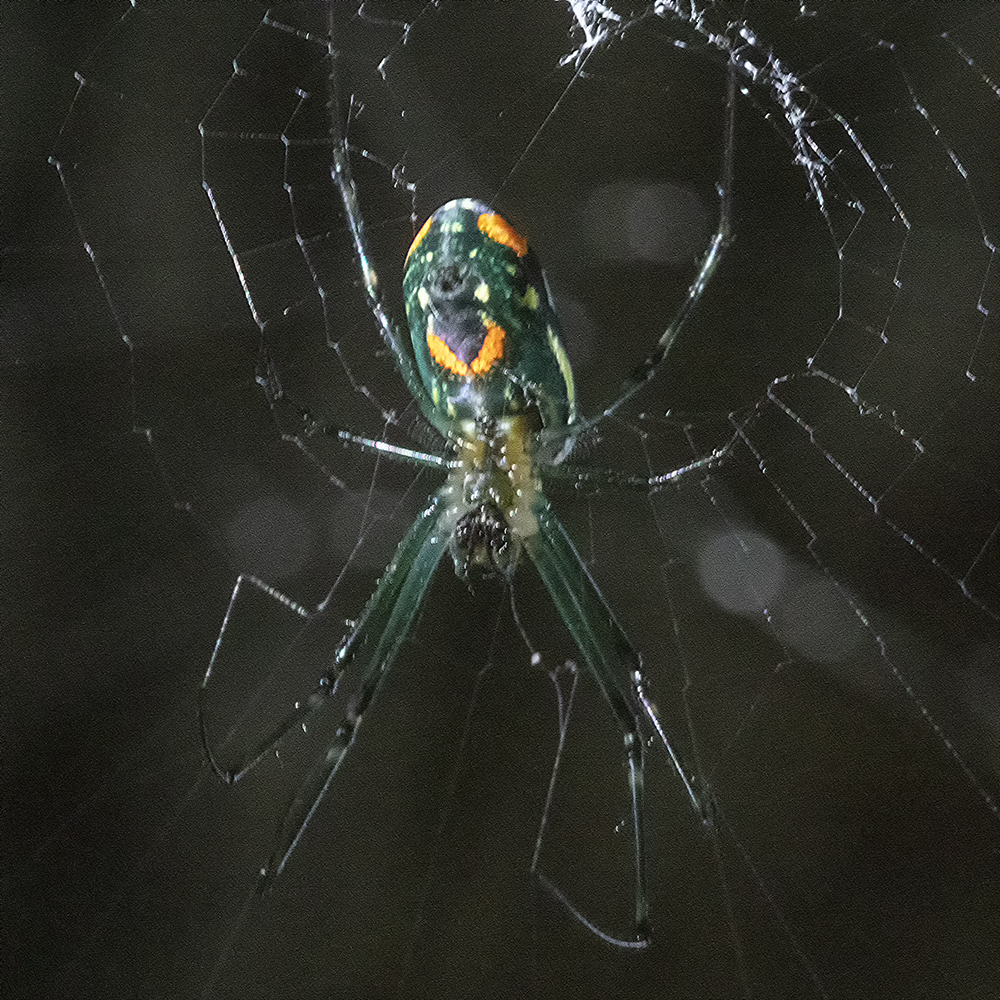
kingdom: Animalia
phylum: Arthropoda
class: Arachnida
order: Araneae
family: Tetragnathidae
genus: Leucauge
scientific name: Leucauge argyrobapta
